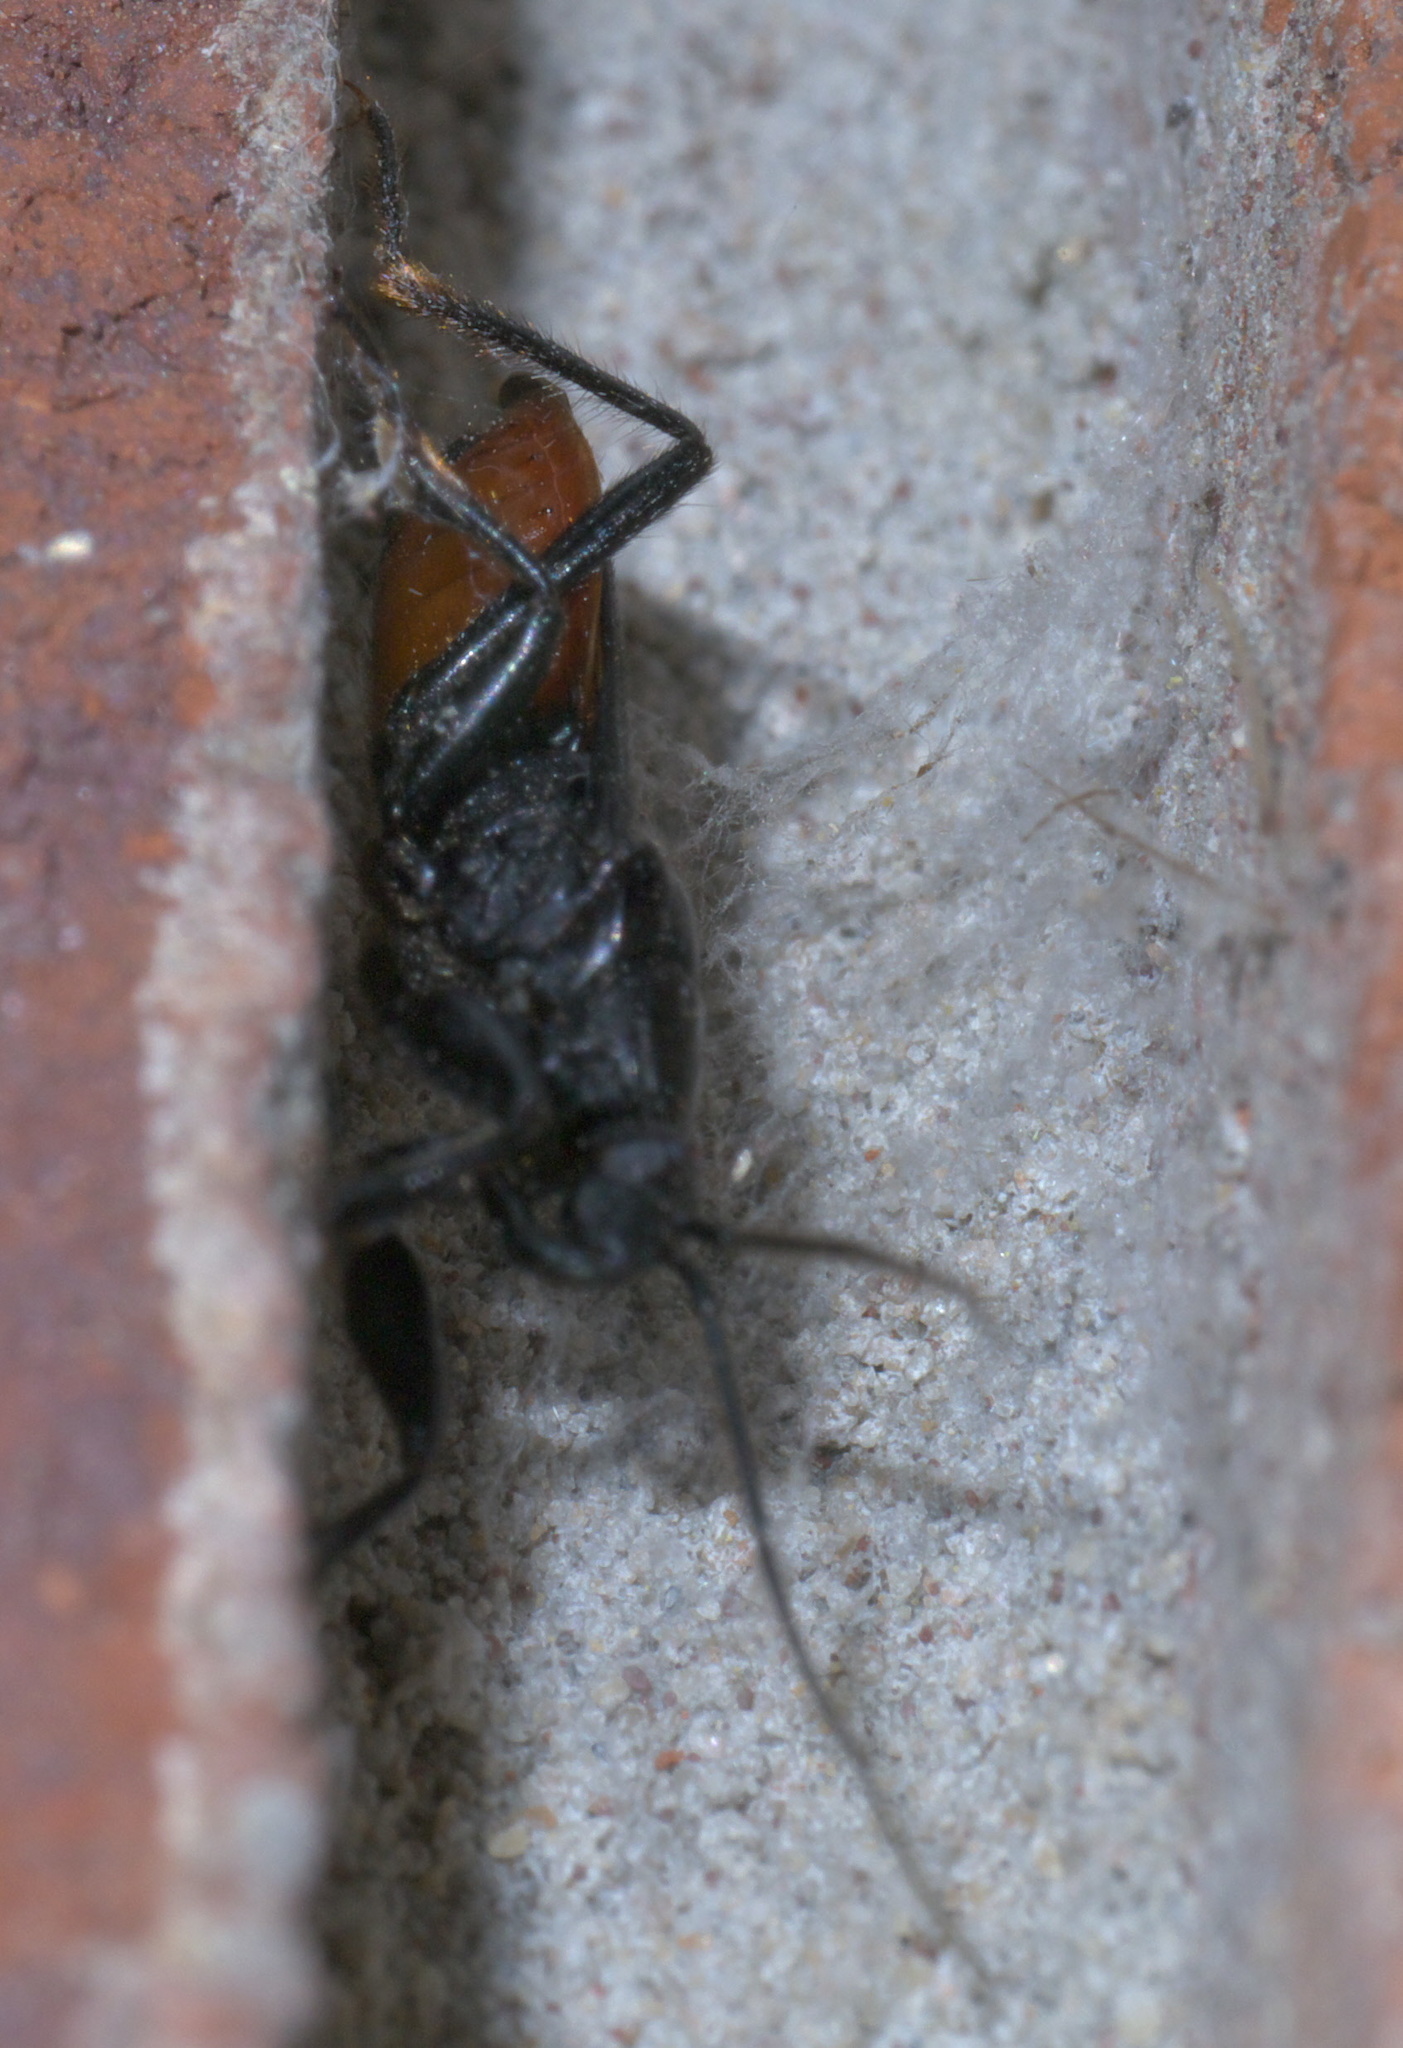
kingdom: Animalia
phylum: Arthropoda
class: Insecta
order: Hemiptera
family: Reduviidae
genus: Melanolestes
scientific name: Melanolestes picipes
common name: Assassin bug
